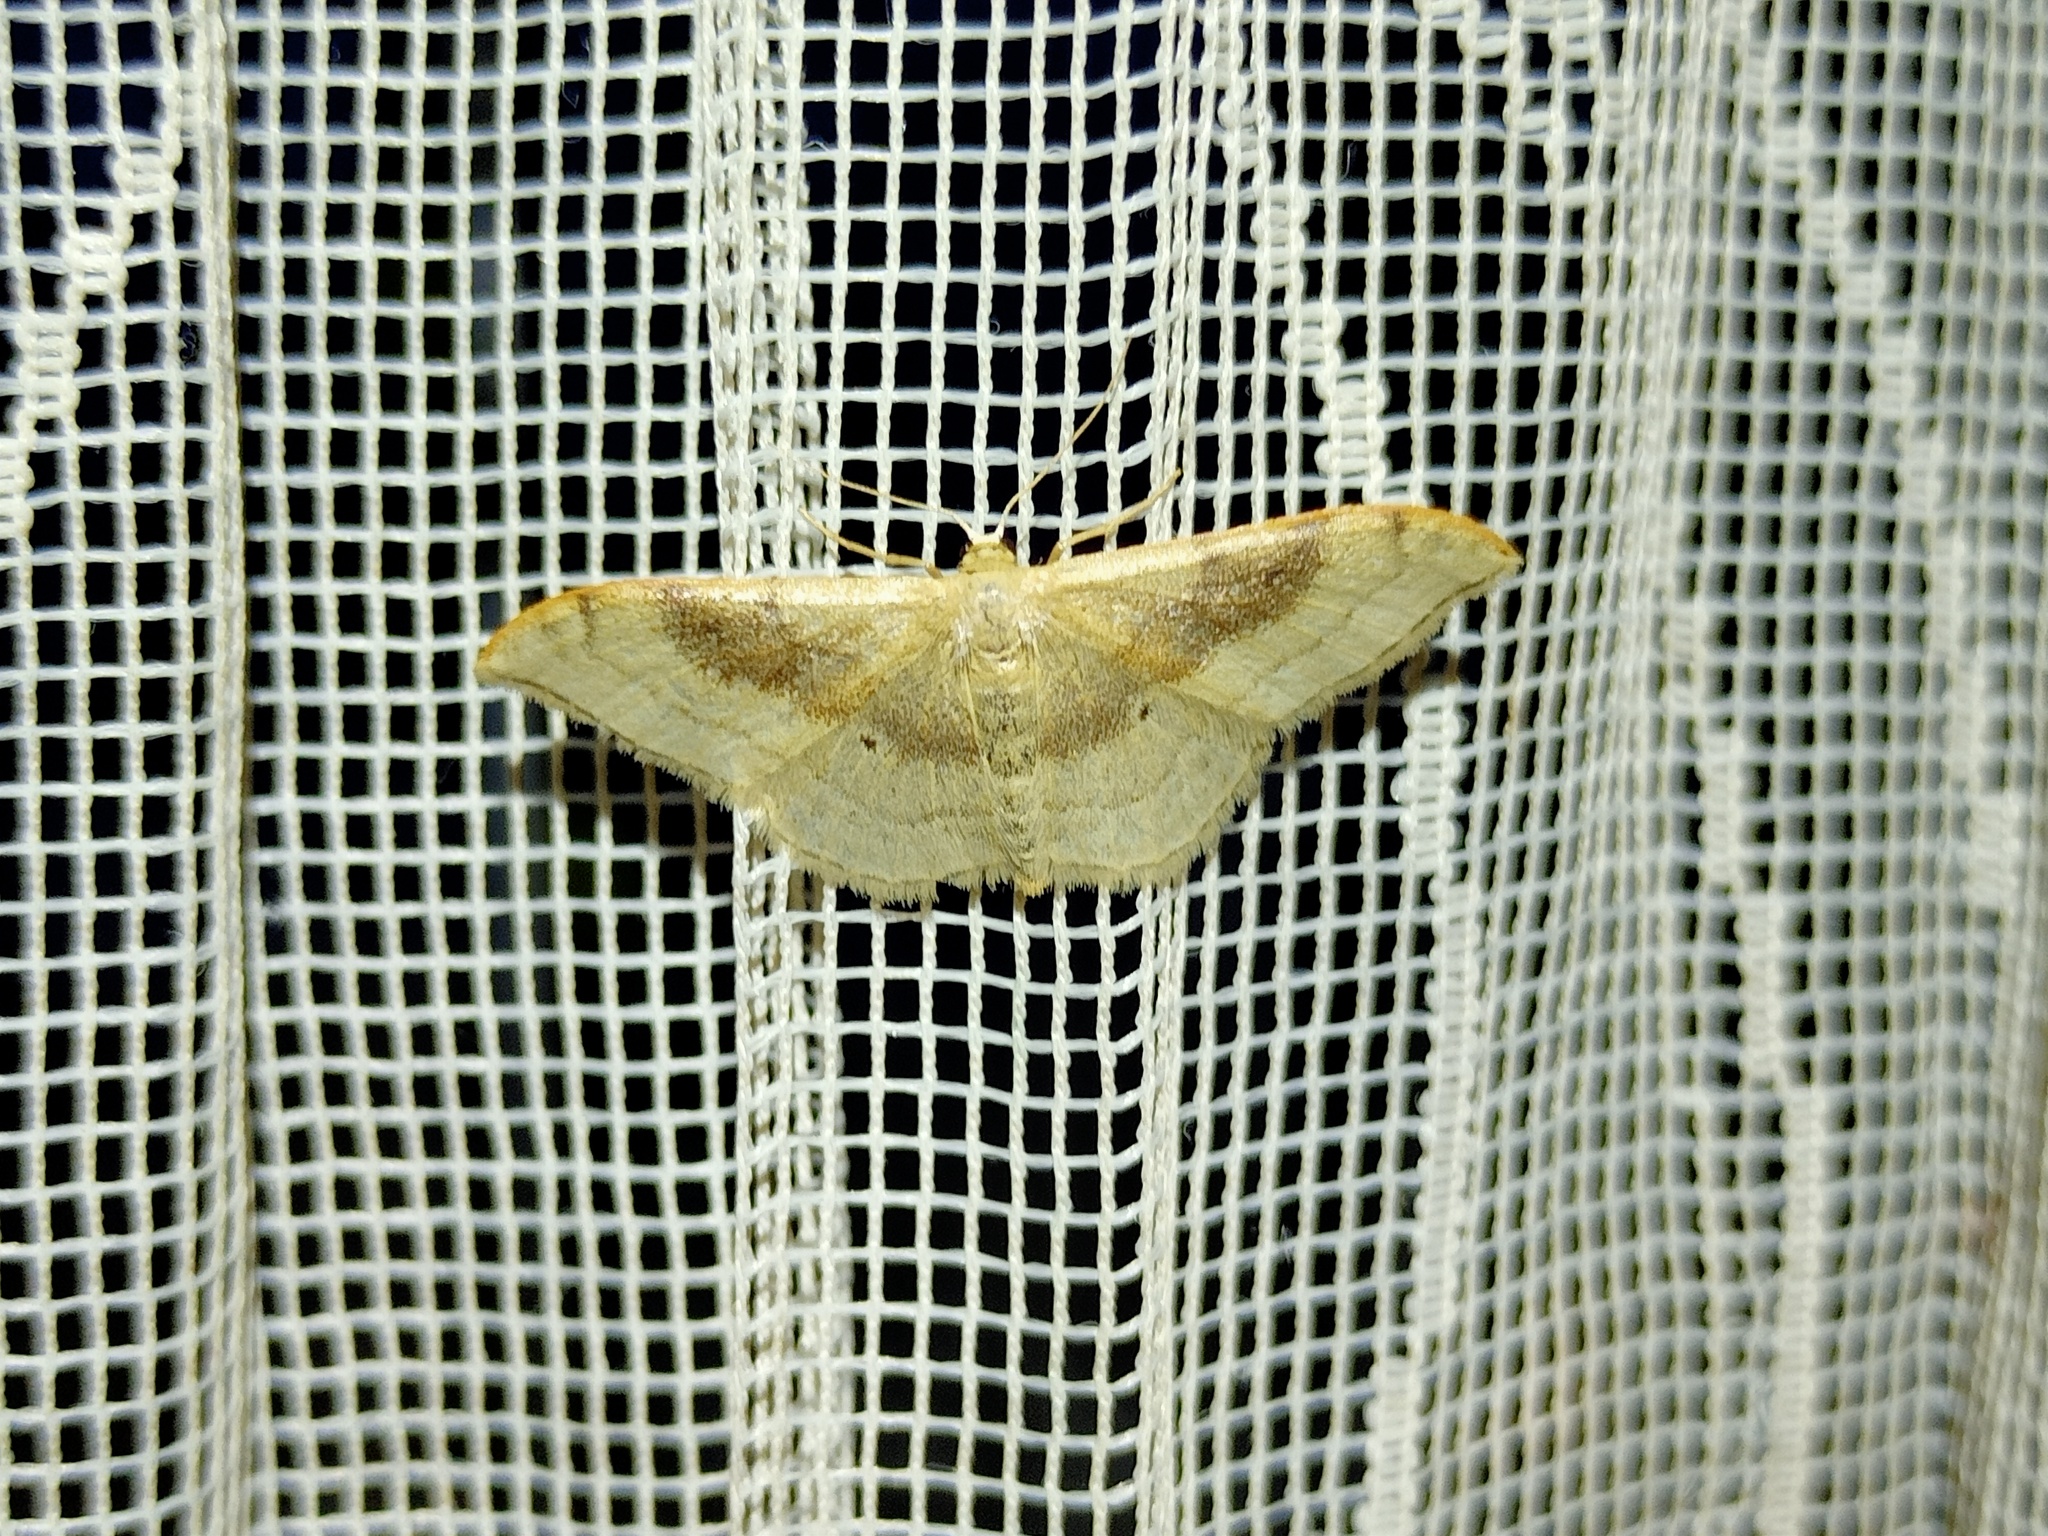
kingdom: Animalia
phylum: Arthropoda
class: Insecta
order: Lepidoptera
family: Geometridae
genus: Idaea
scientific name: Idaea degeneraria
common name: Portland ribbon wave
